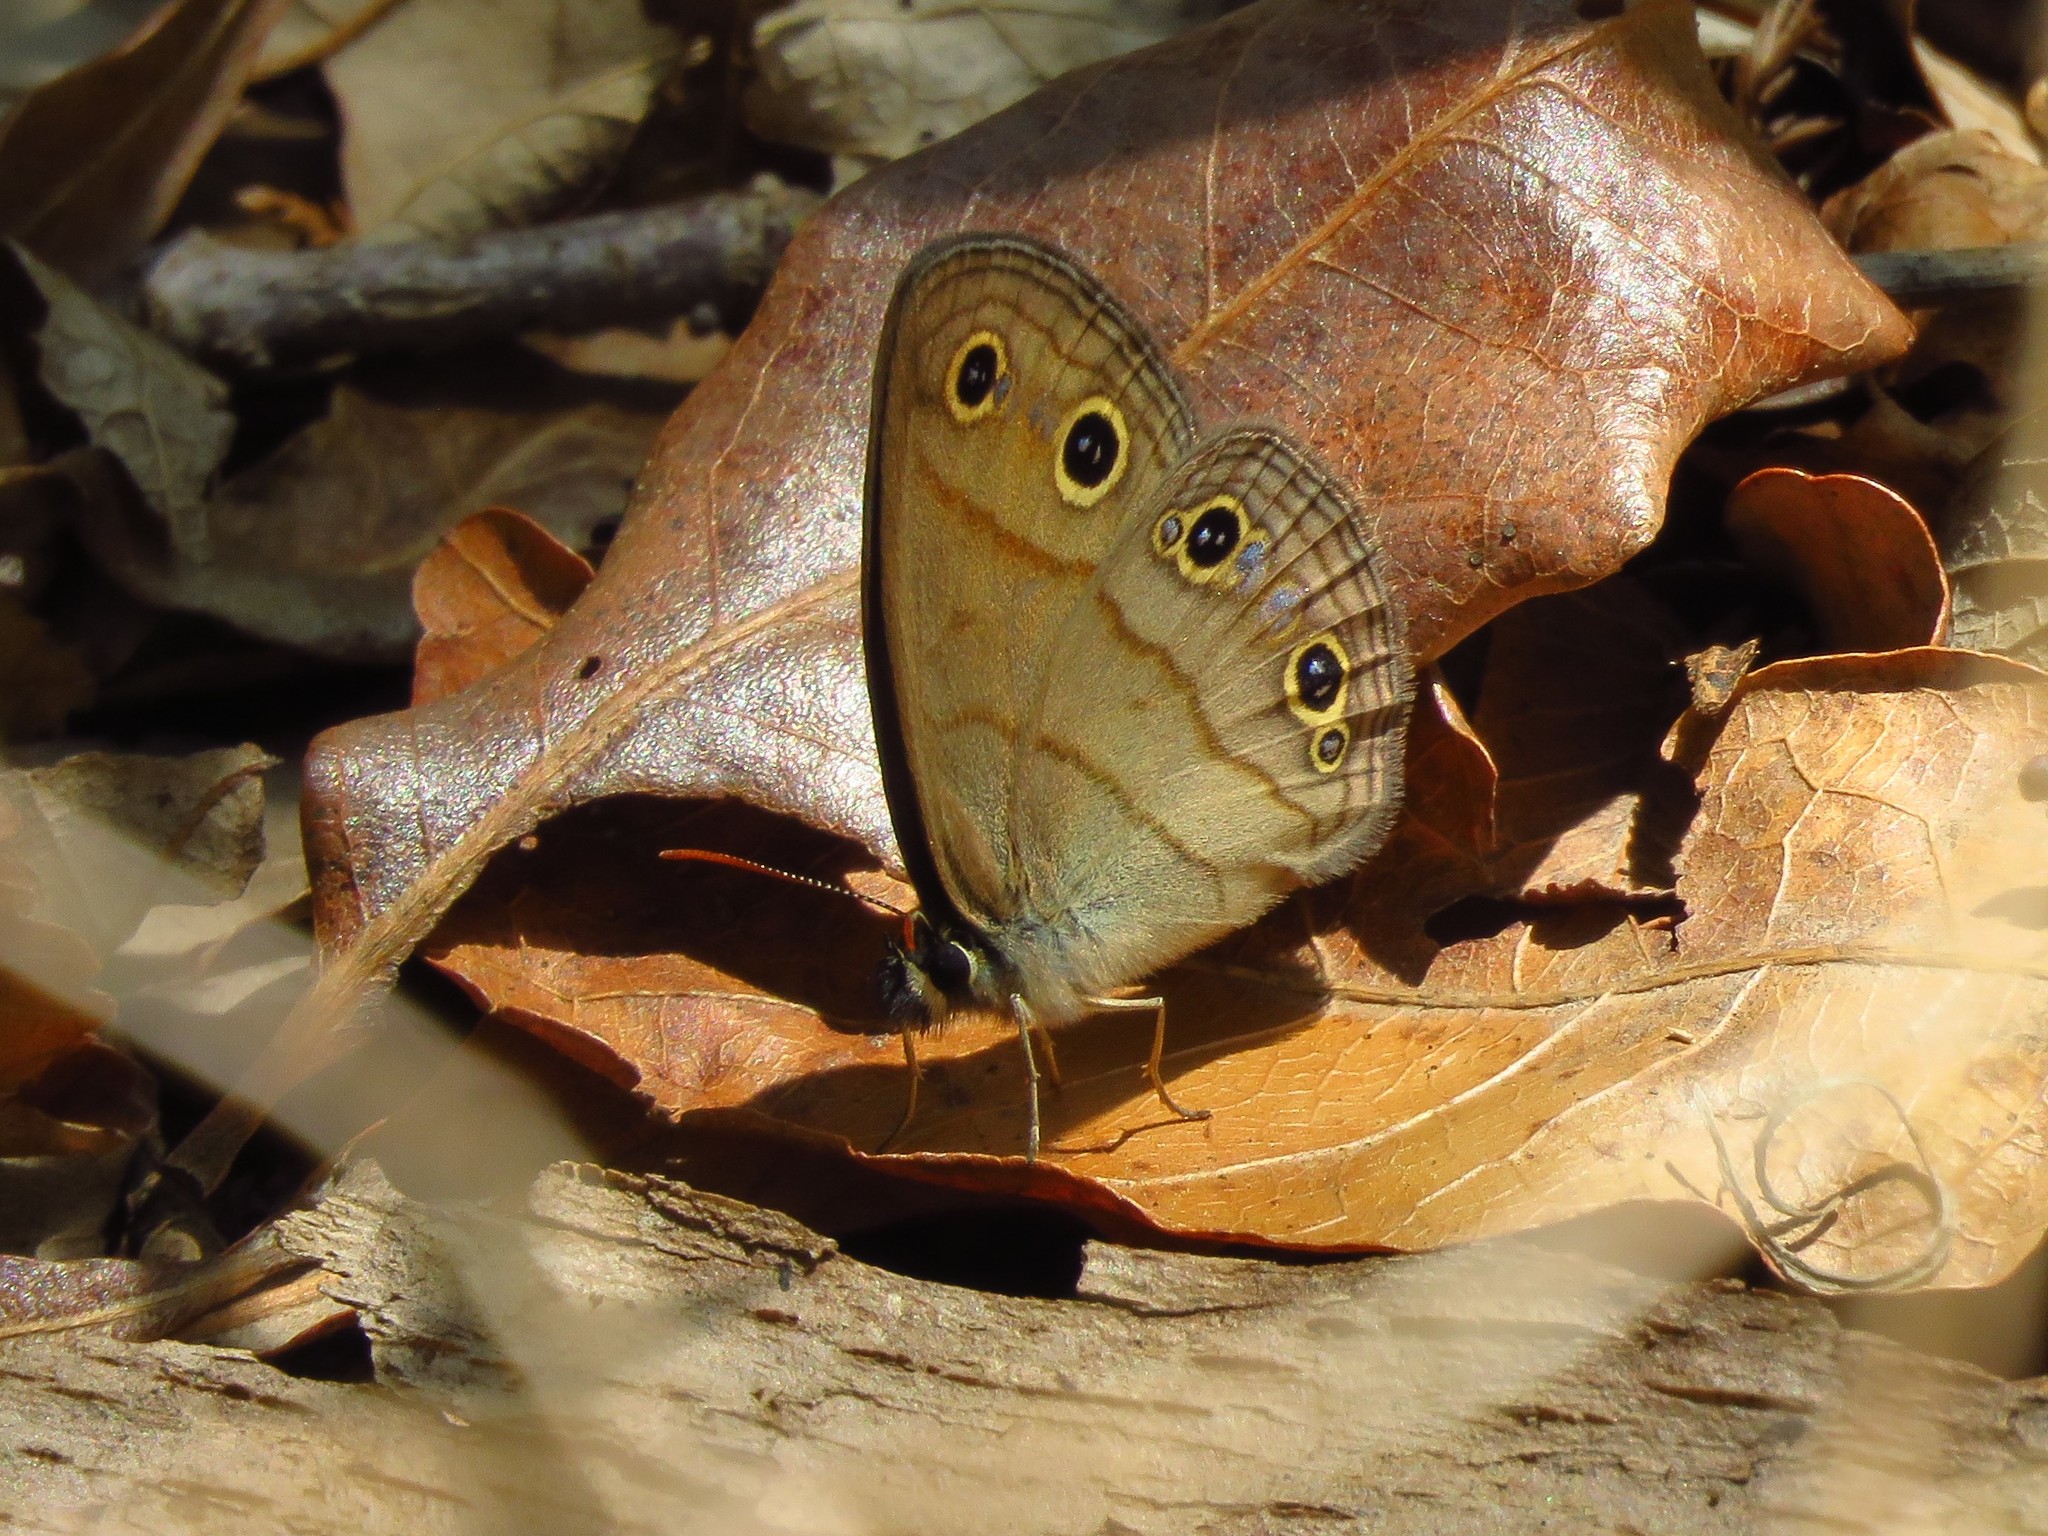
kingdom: Animalia
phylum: Arthropoda
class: Insecta
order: Lepidoptera
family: Nymphalidae
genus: Euptychia
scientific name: Euptychia cymela
